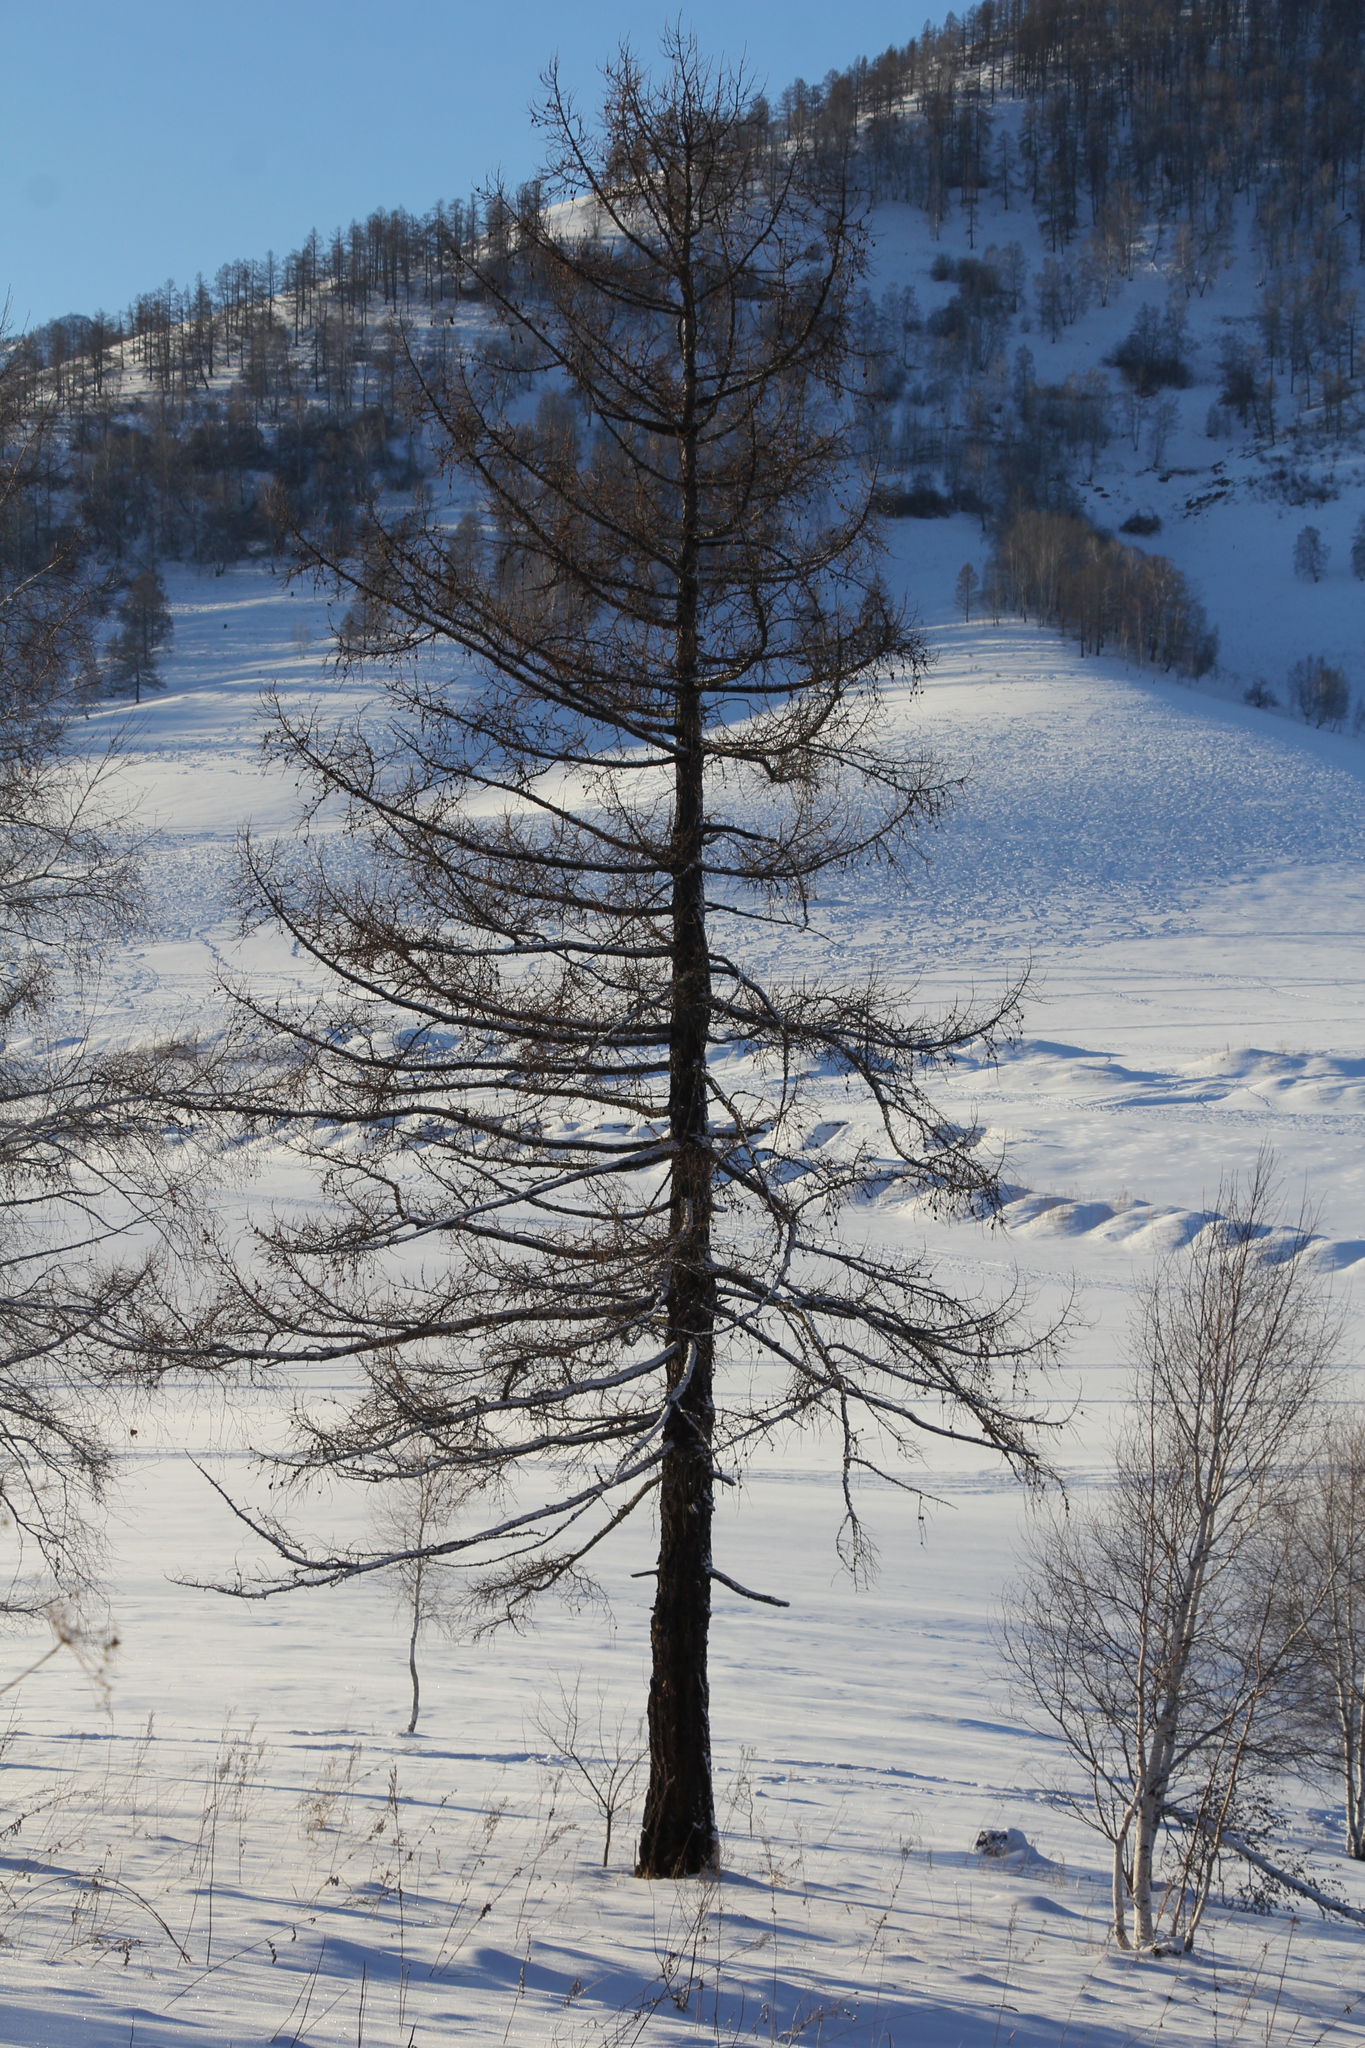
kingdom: Plantae
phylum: Tracheophyta
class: Pinopsida
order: Pinales
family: Pinaceae
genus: Larix
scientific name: Larix sibirica
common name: Siberian larch
